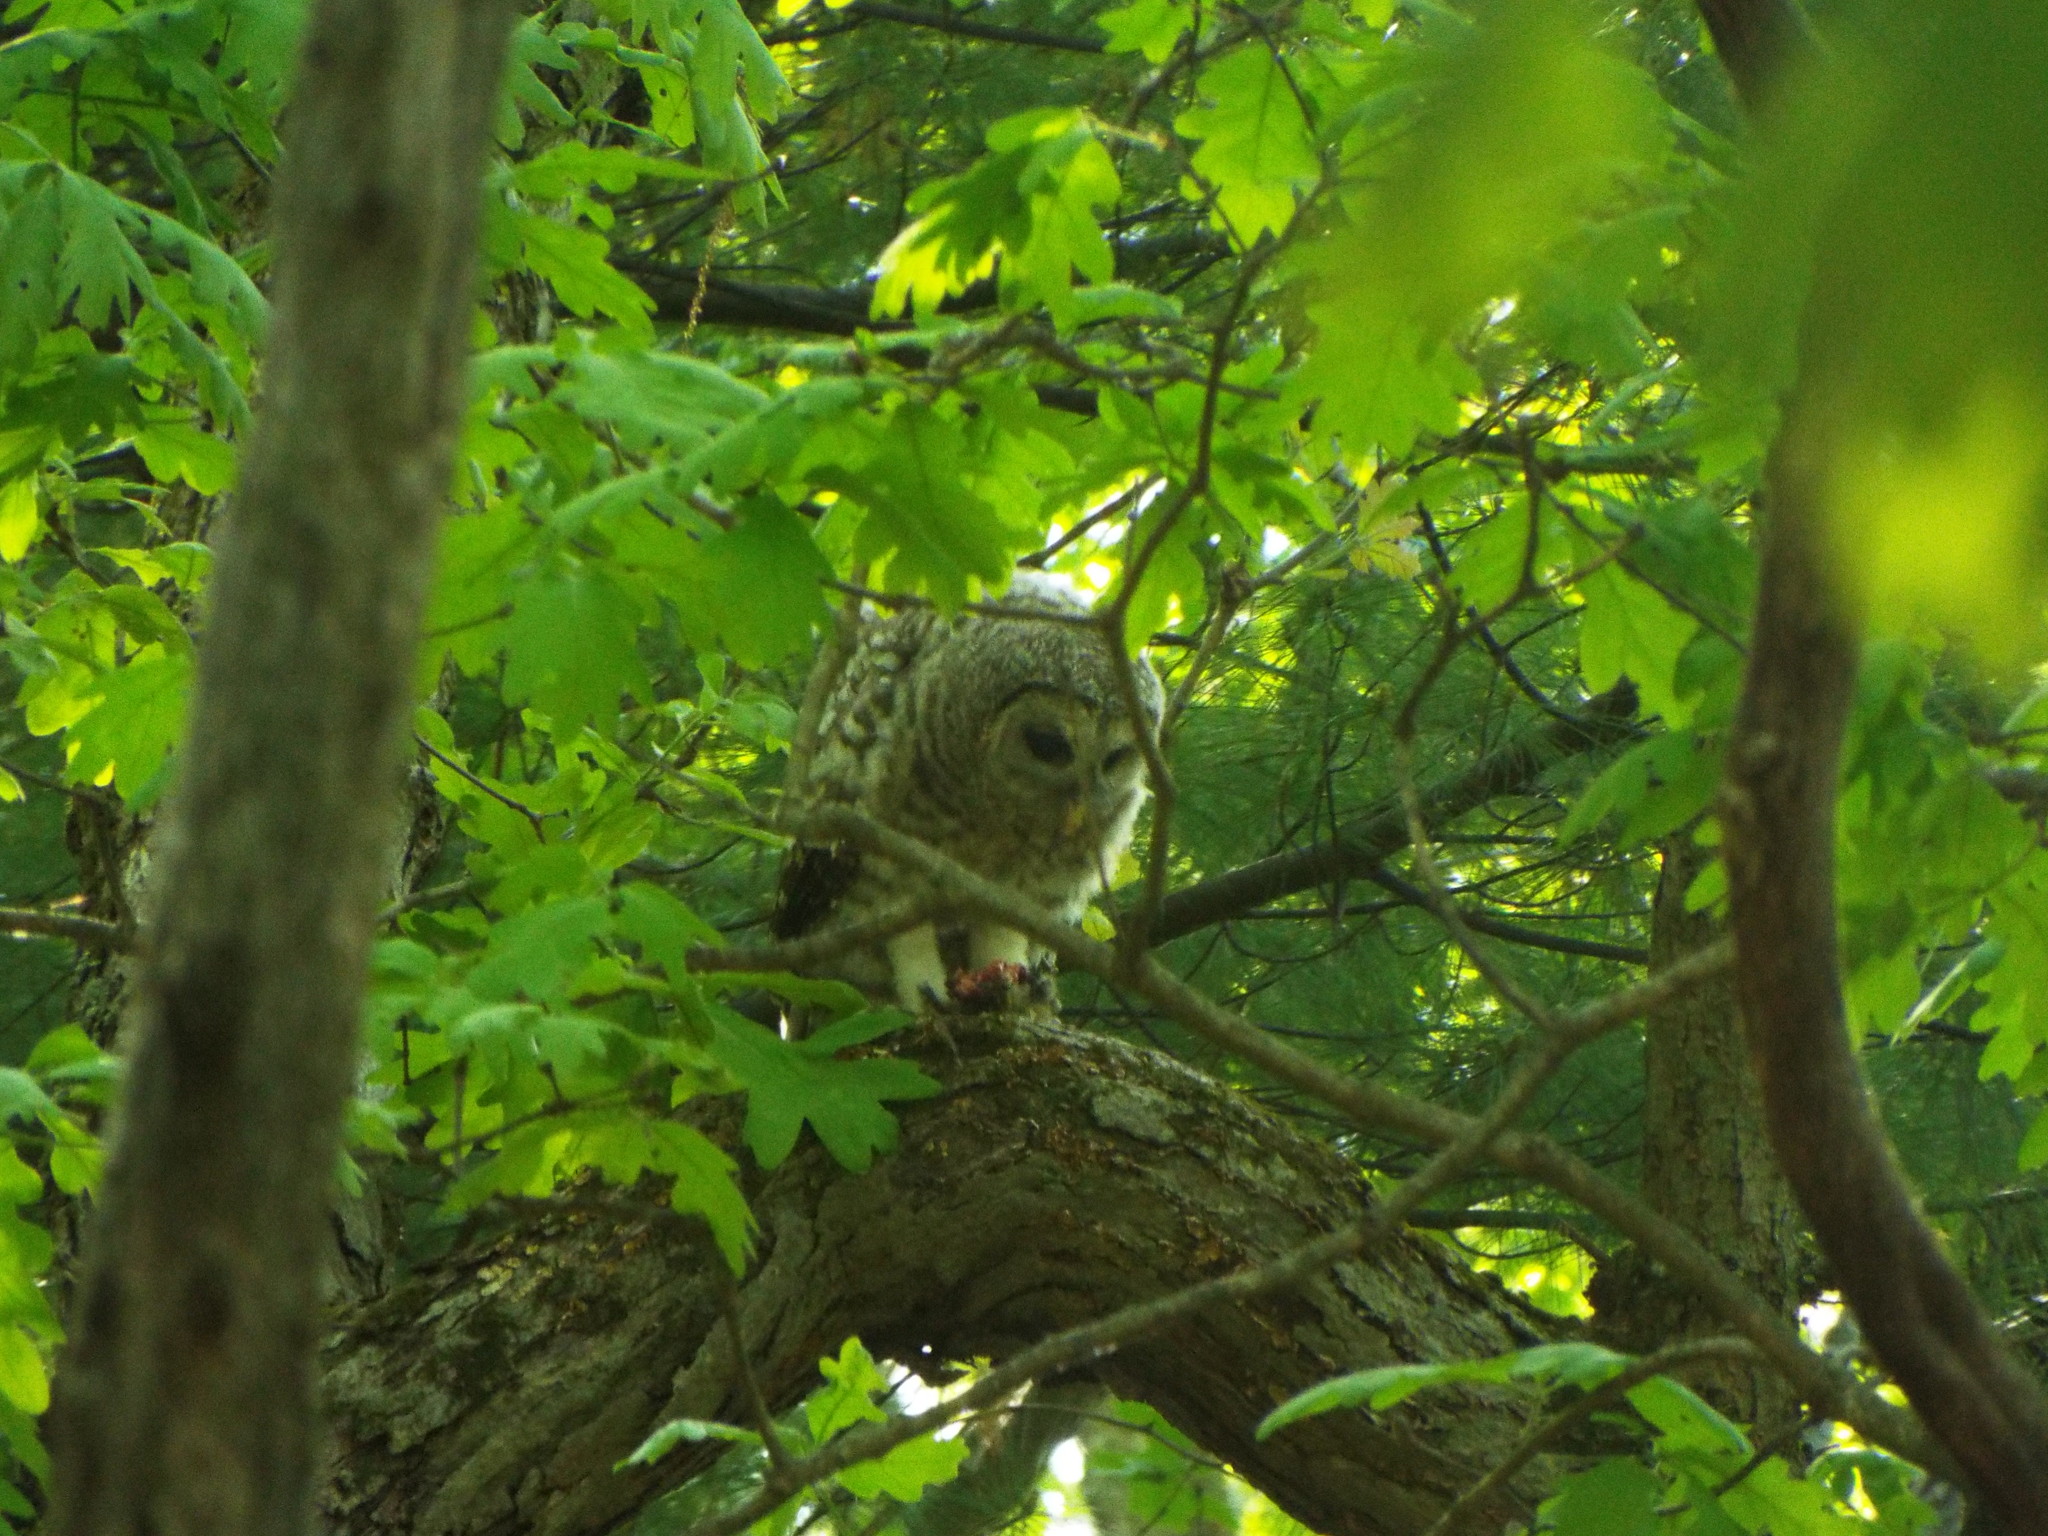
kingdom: Animalia
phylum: Chordata
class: Aves
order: Strigiformes
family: Strigidae
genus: Strix
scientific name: Strix varia
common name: Barred owl
